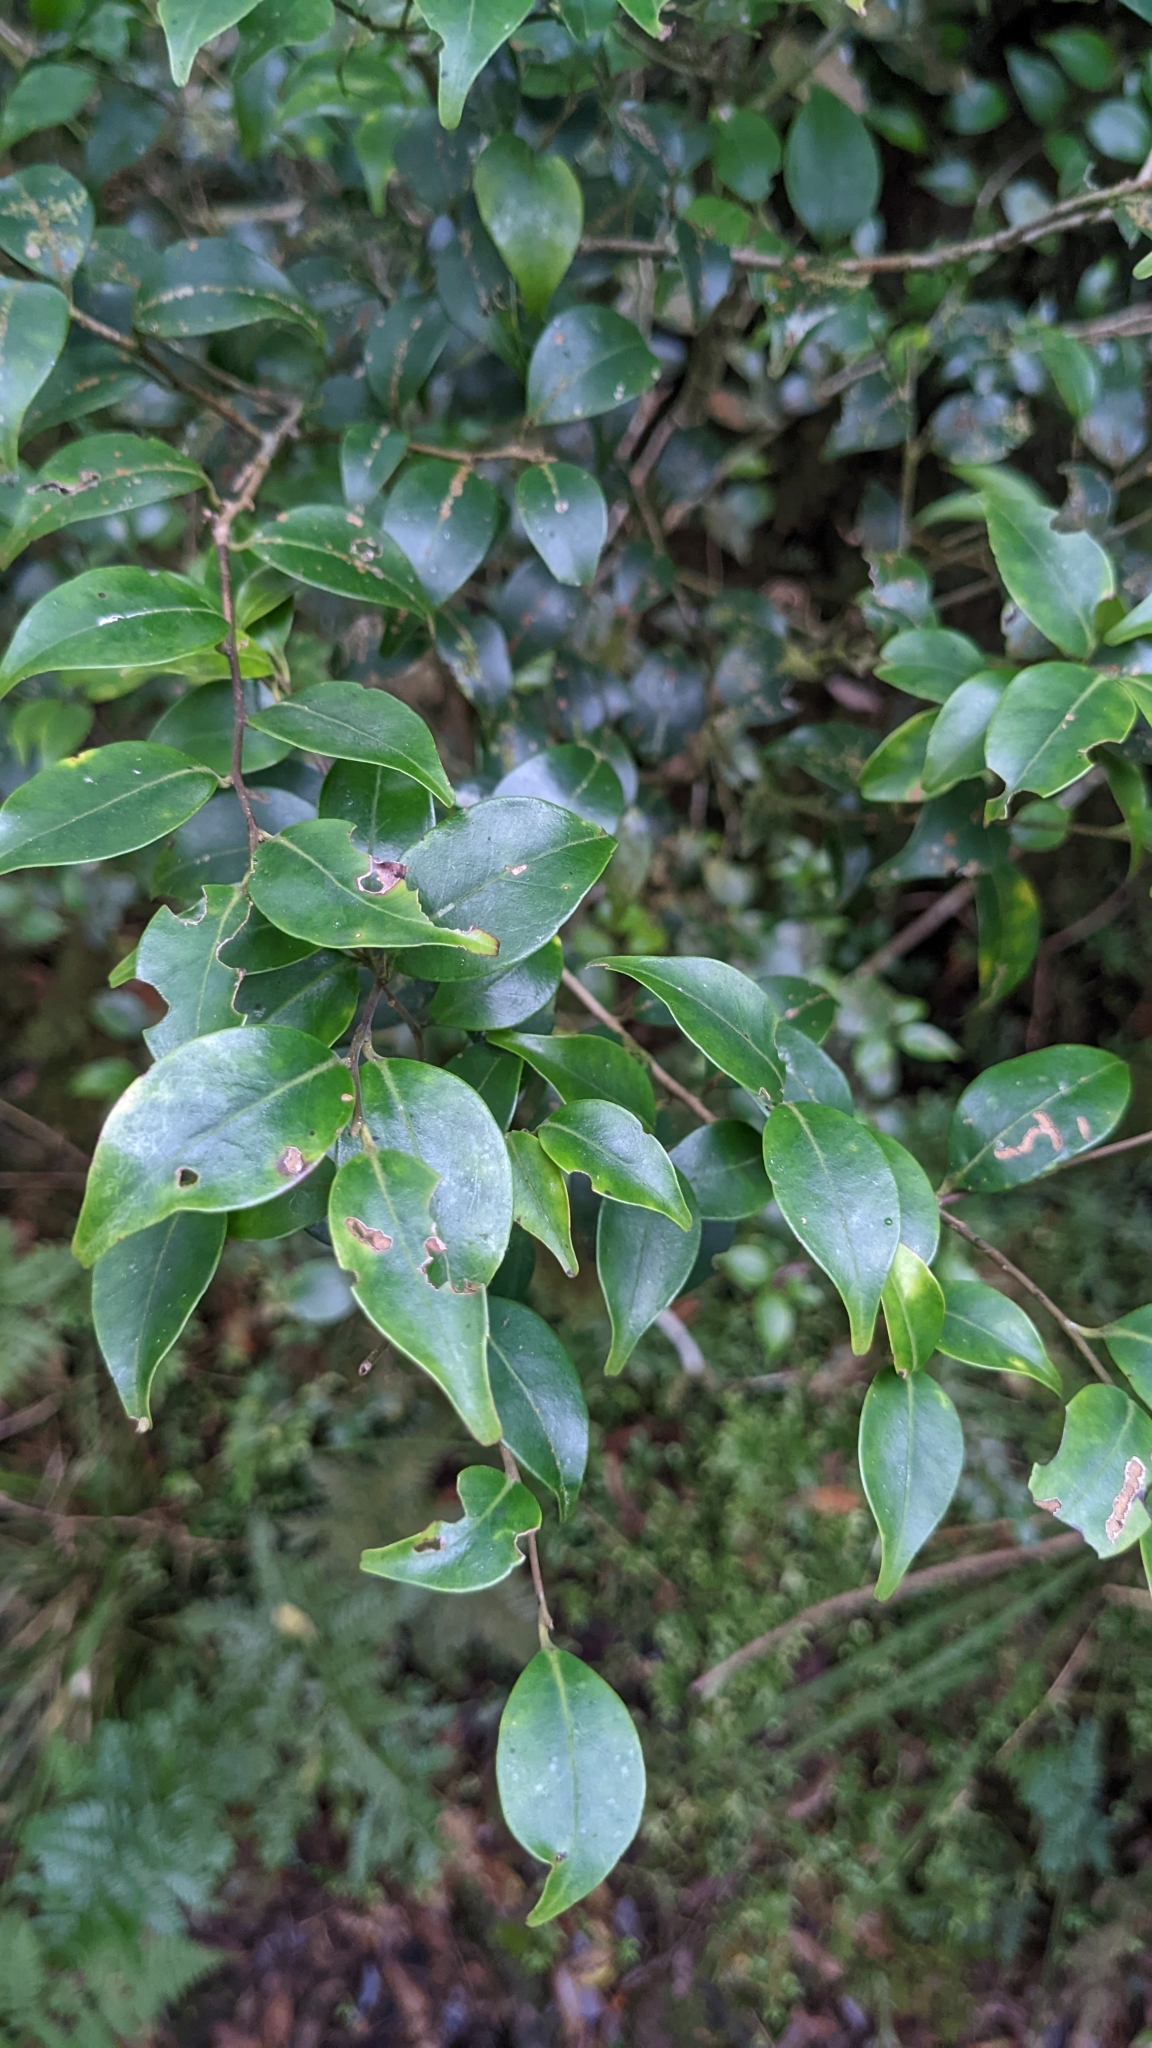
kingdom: Plantae
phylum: Tracheophyta
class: Magnoliopsida
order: Aquifoliales
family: Aquifoliaceae
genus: Ilex
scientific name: Ilex goshiensis
